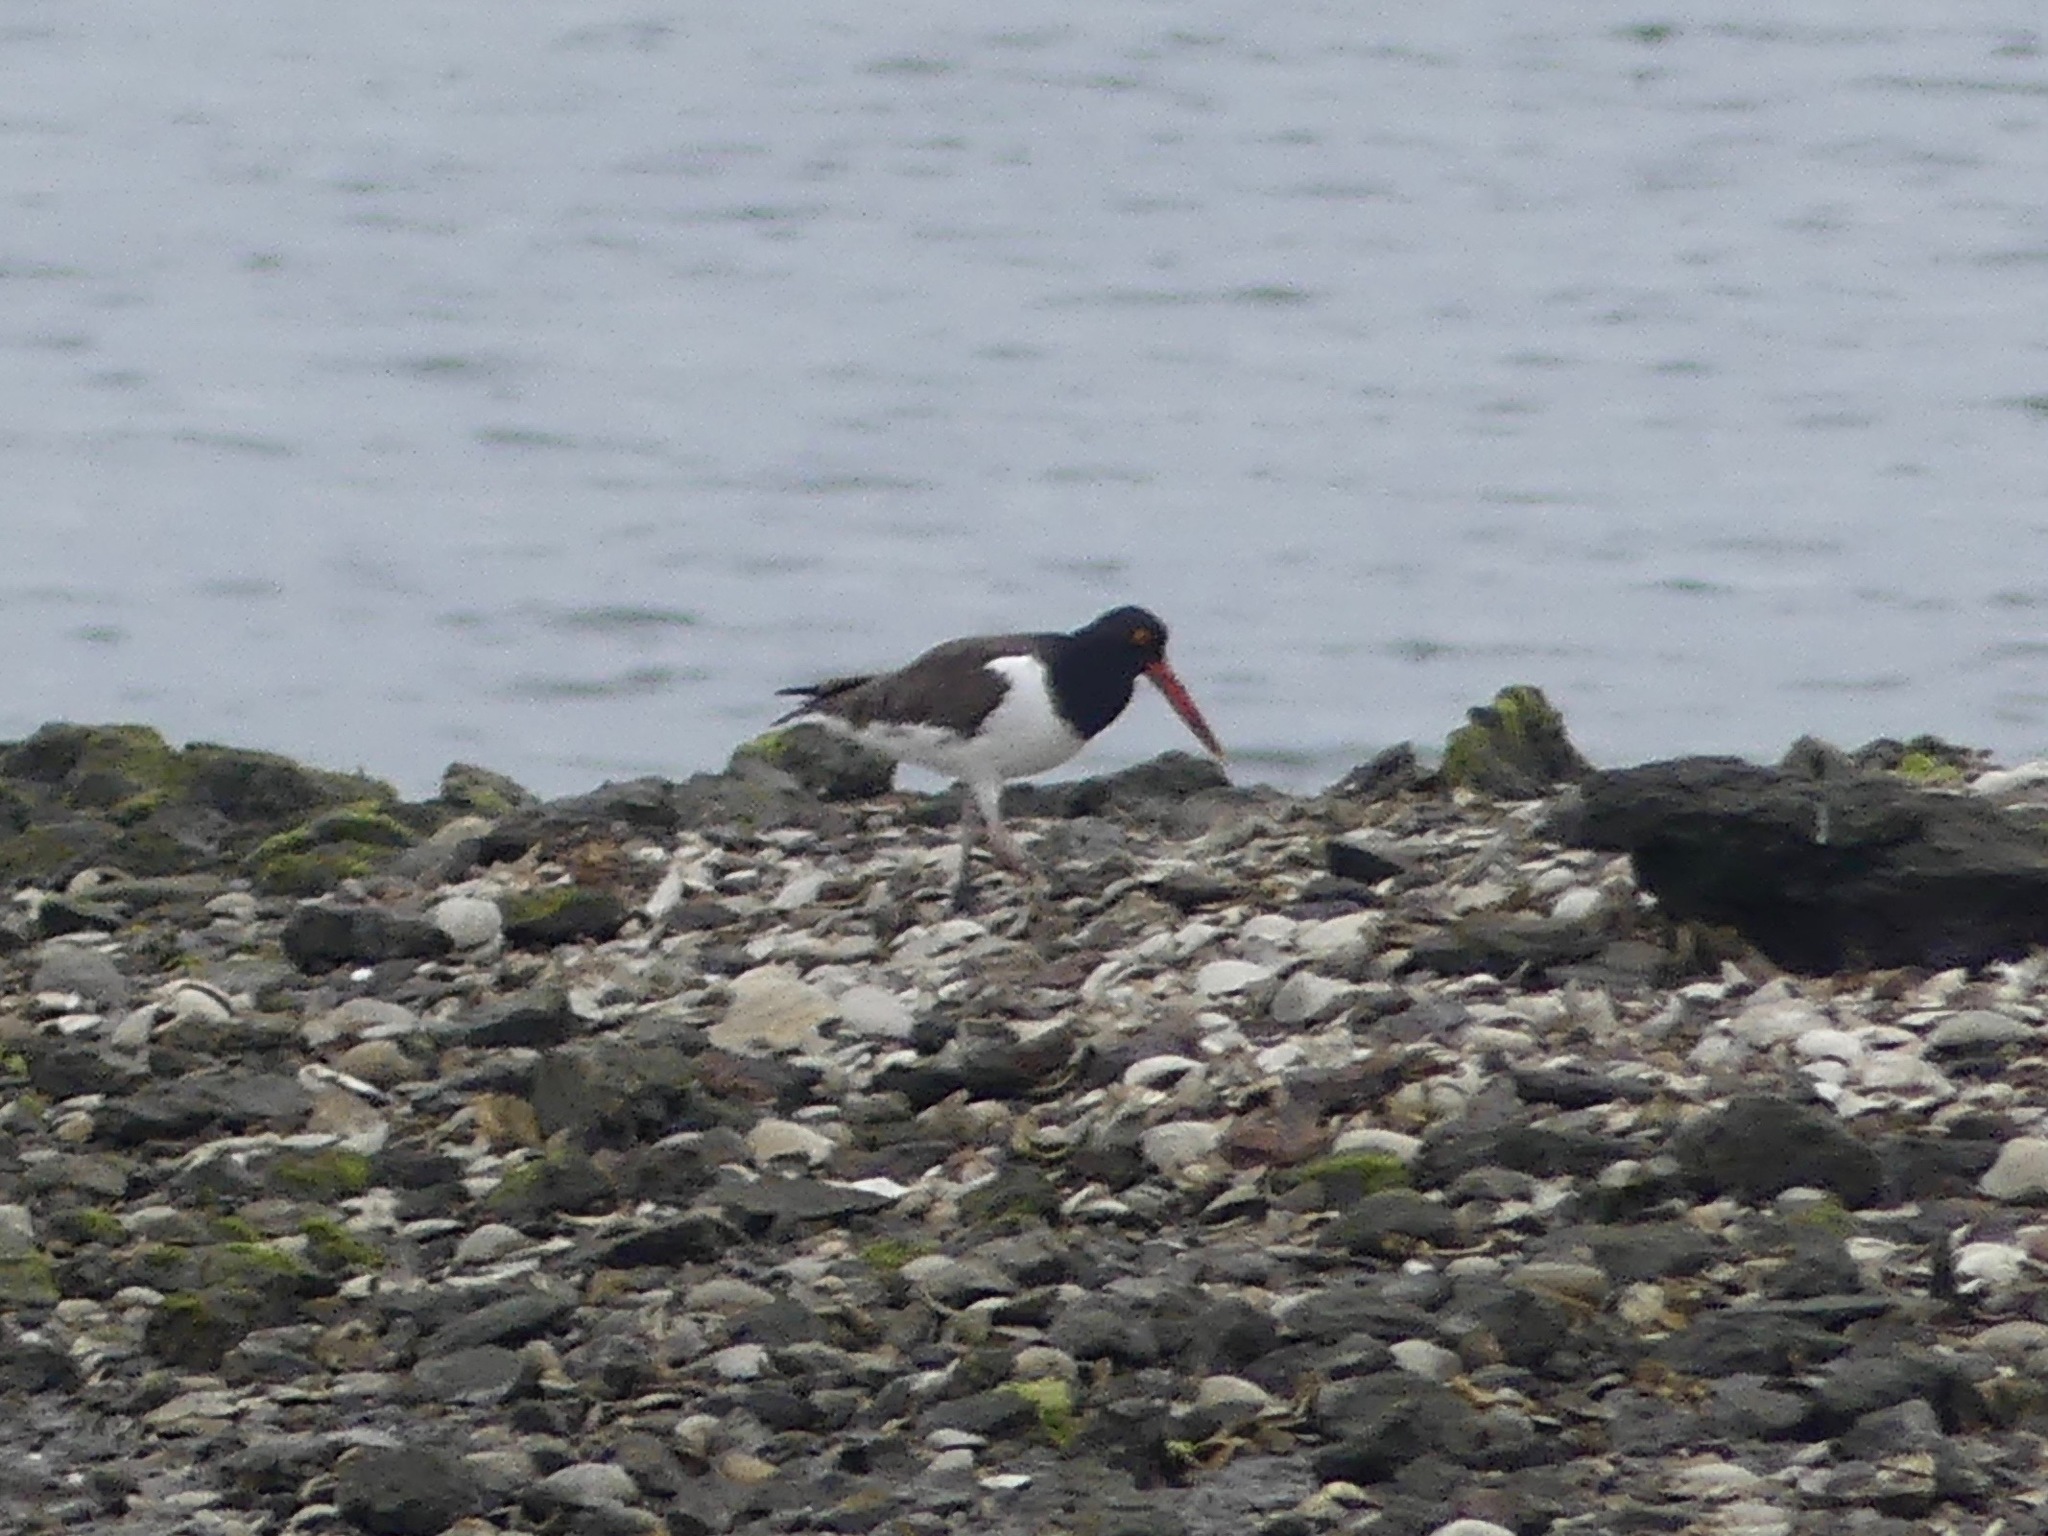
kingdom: Animalia
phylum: Chordata
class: Aves
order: Charadriiformes
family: Haematopodidae
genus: Haematopus
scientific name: Haematopus palliatus
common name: American oystercatcher
